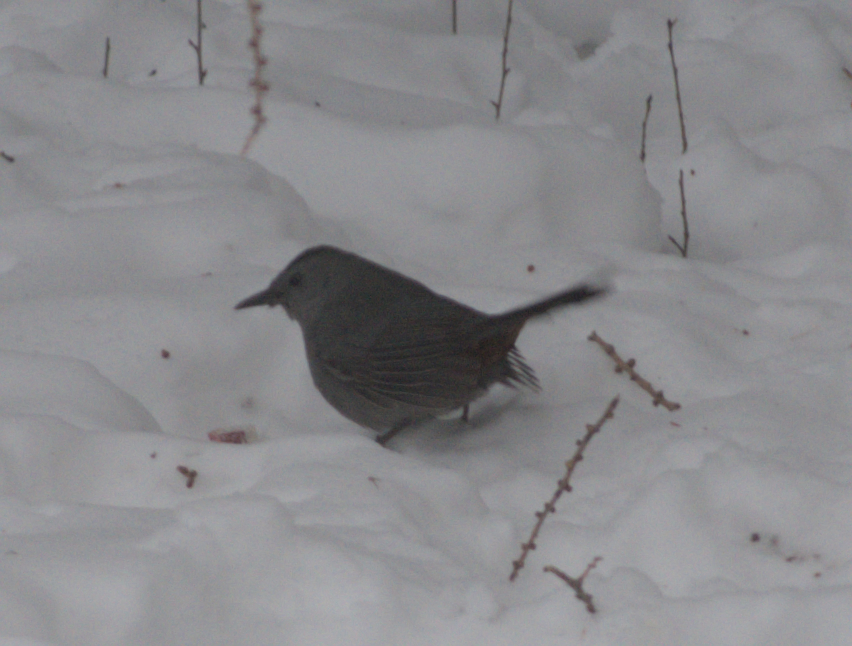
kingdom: Animalia
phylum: Chordata
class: Aves
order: Passeriformes
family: Mimidae
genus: Dumetella
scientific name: Dumetella carolinensis
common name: Gray catbird
